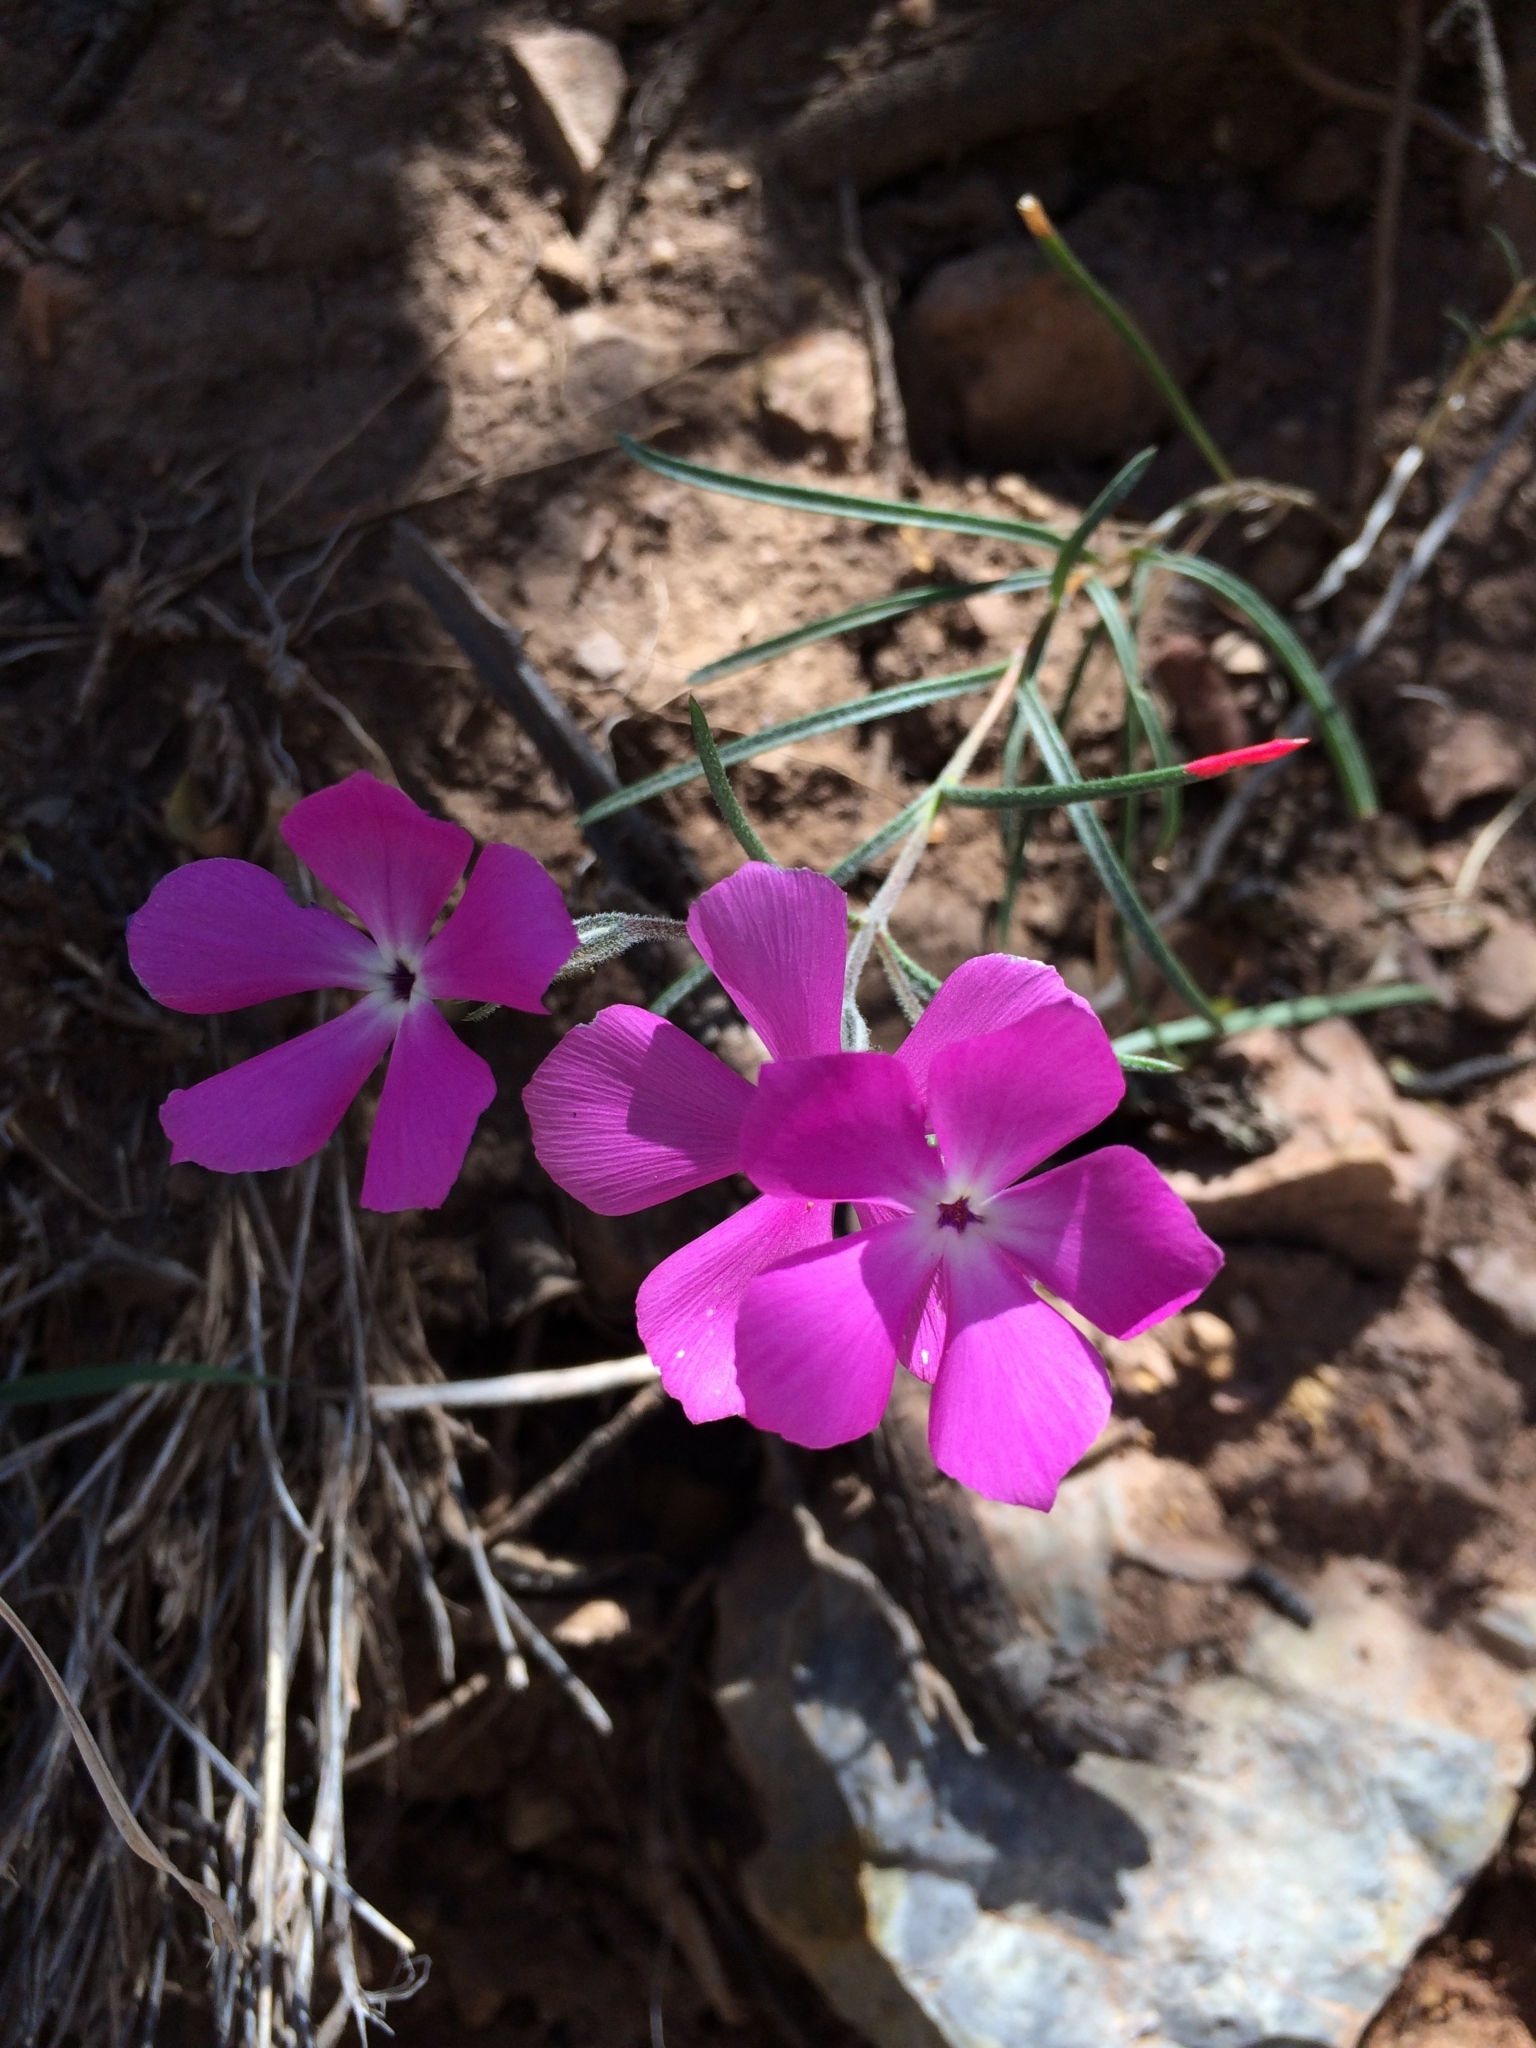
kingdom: Plantae
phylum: Tracheophyta
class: Magnoliopsida
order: Ericales
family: Polemoniaceae
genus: Phlox
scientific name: Phlox nana
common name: Santa fe phlox
